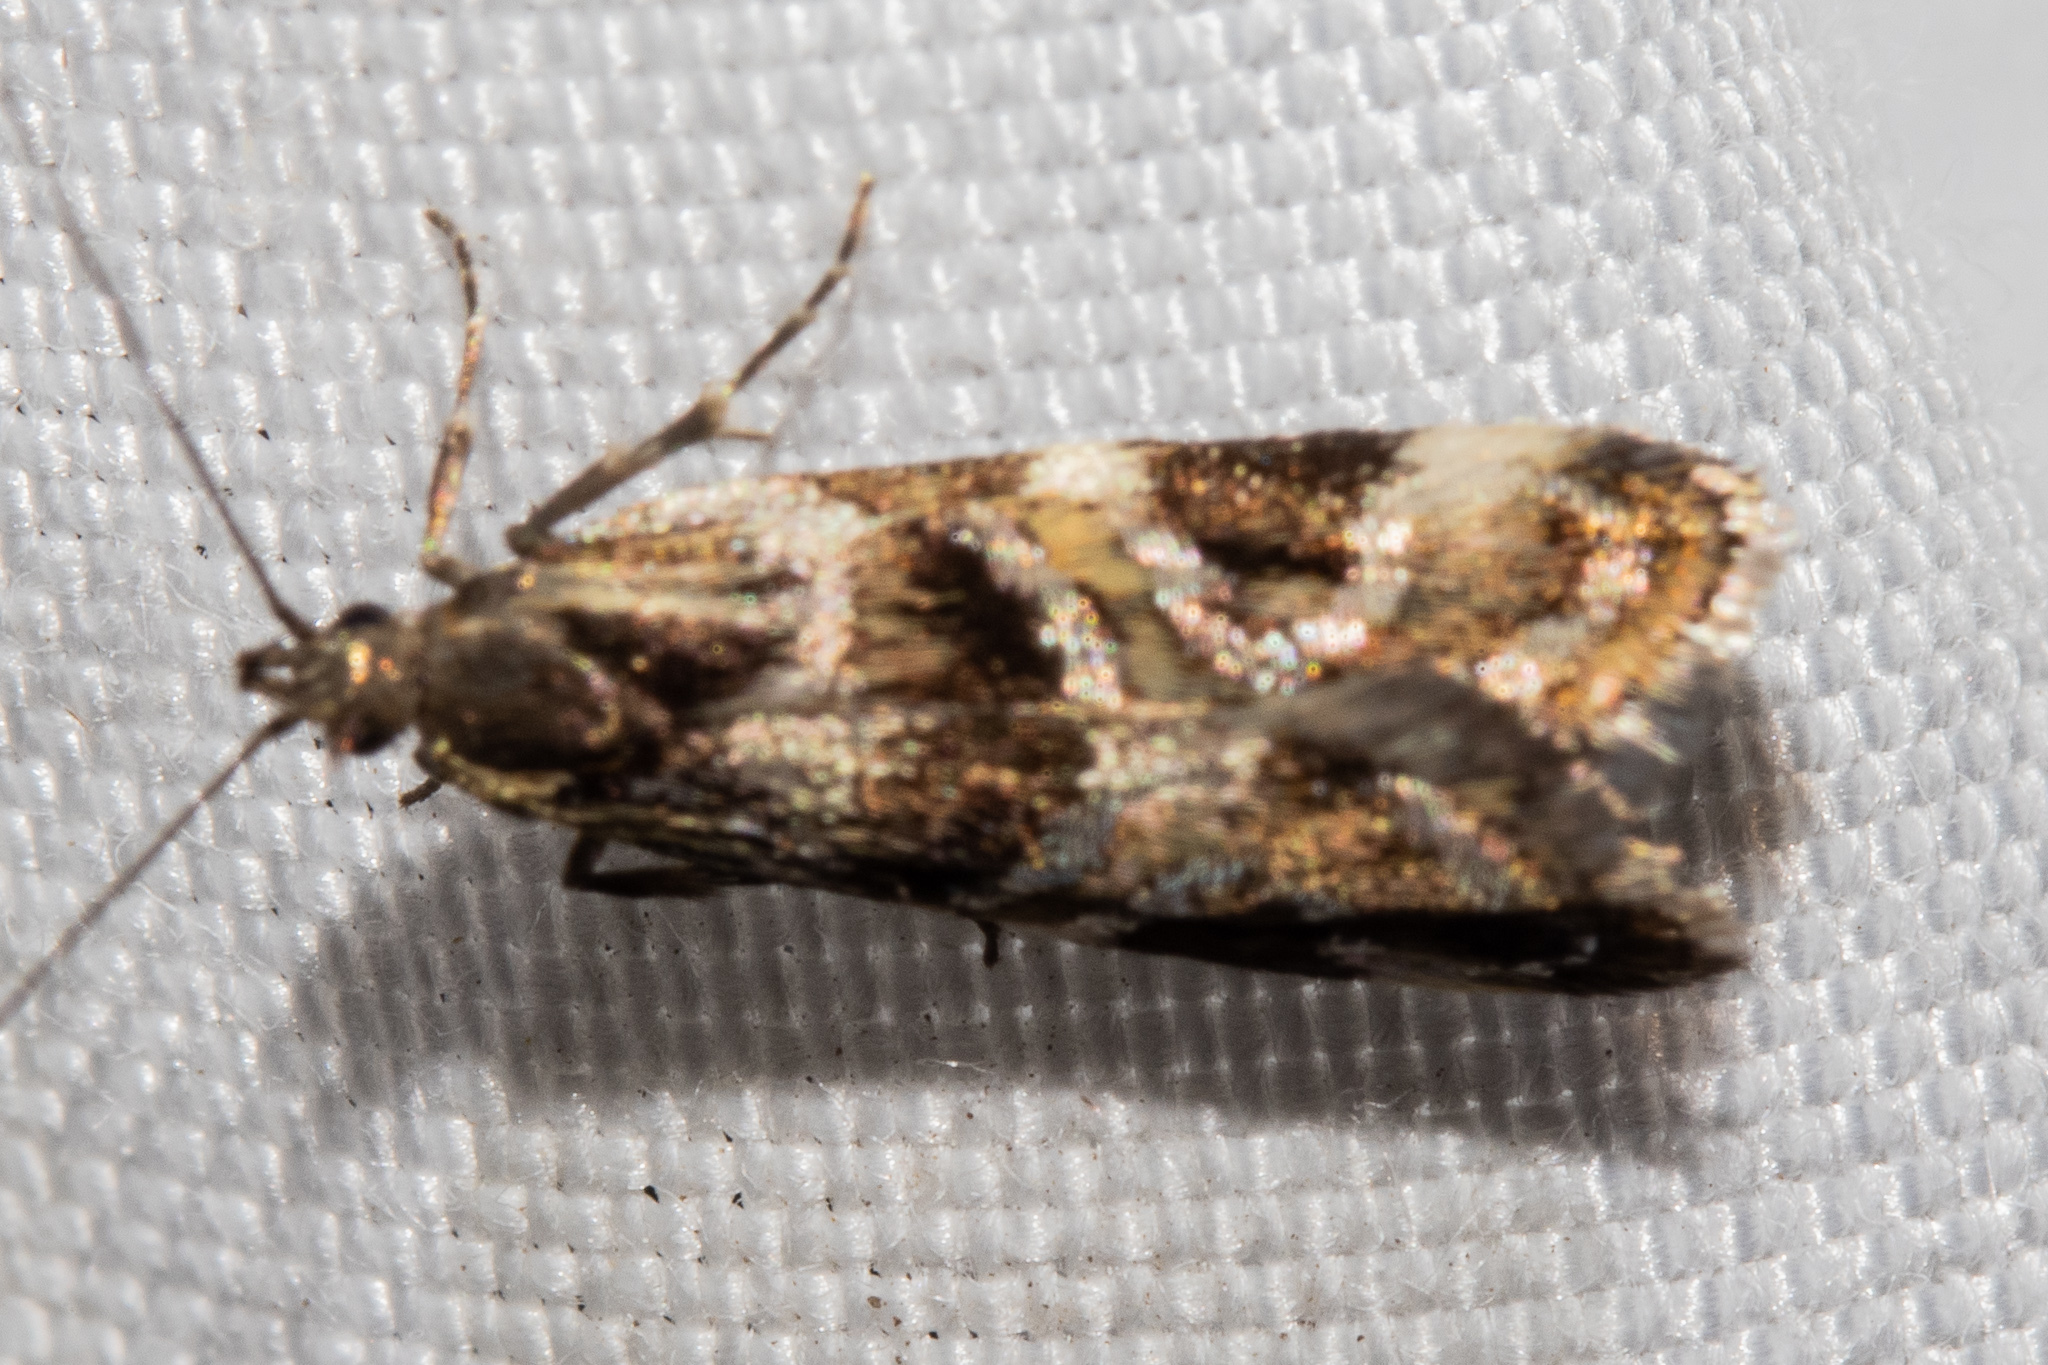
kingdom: Animalia
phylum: Arthropoda
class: Insecta
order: Lepidoptera
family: Oecophoridae
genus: Hierodoris
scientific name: Hierodoris s-fractum
